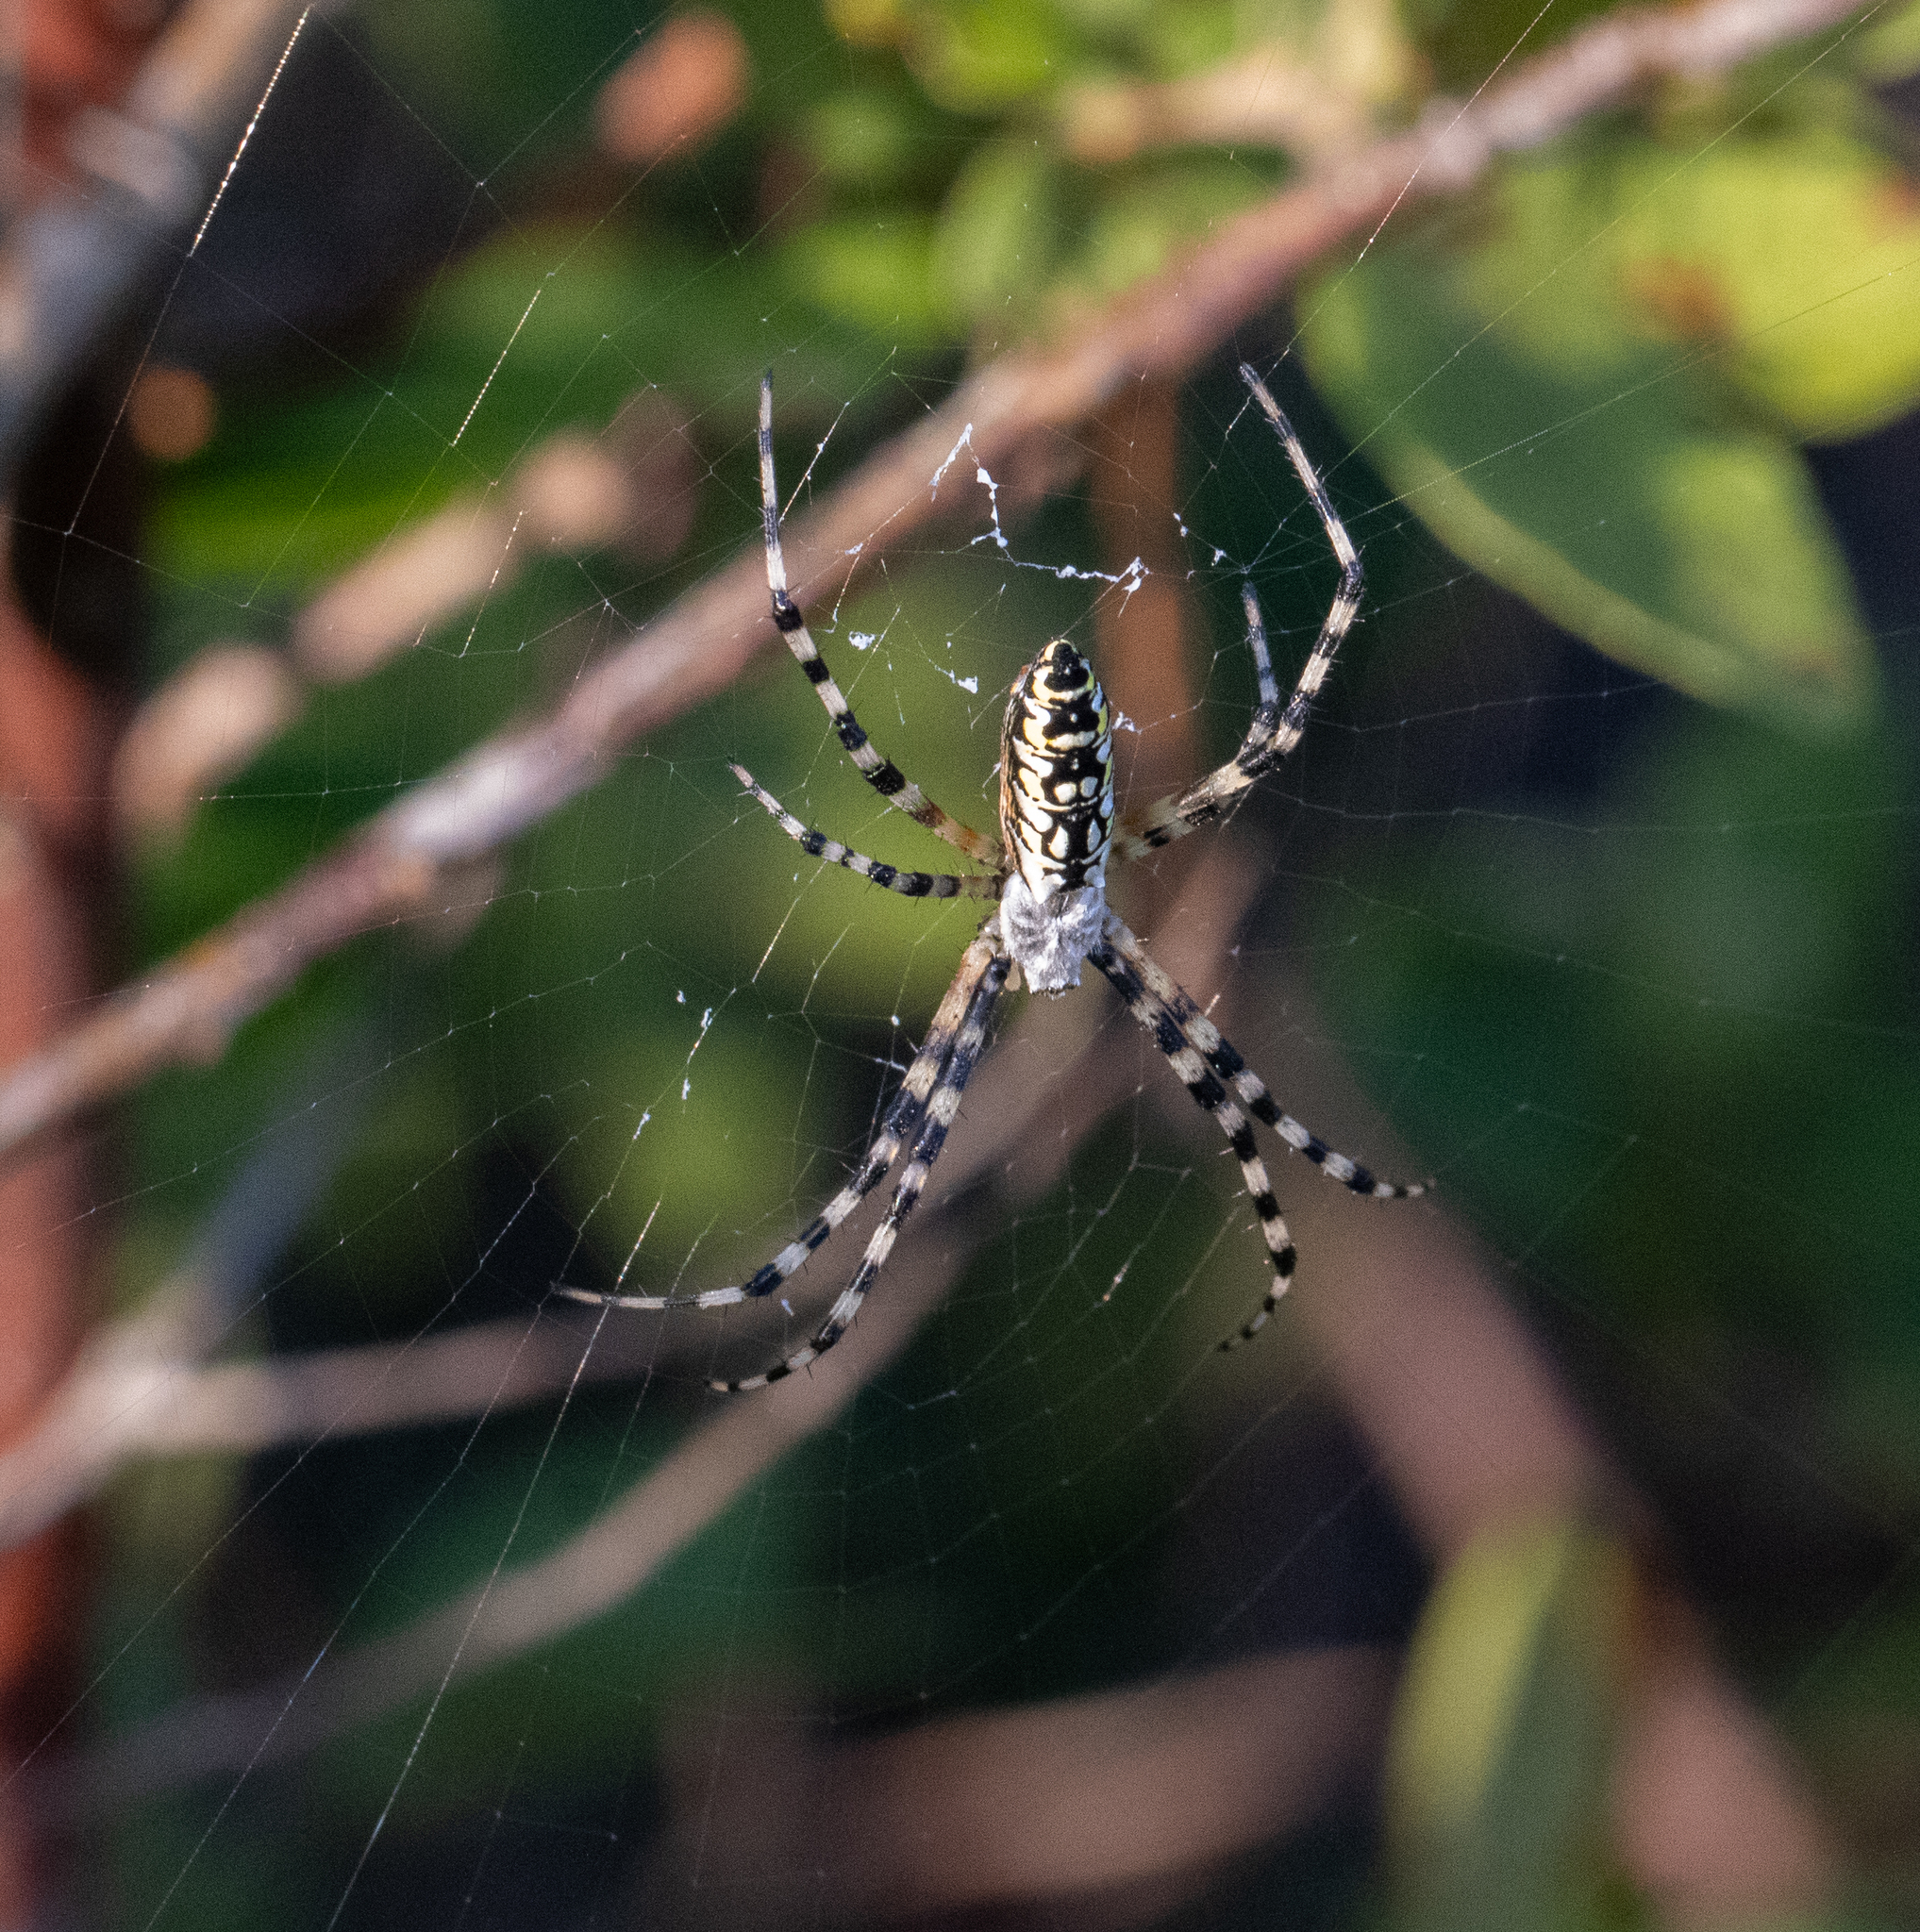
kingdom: Animalia
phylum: Arthropoda
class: Arachnida
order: Araneae
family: Araneidae
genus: Argiope
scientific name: Argiope aurantia
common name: Orb weavers
